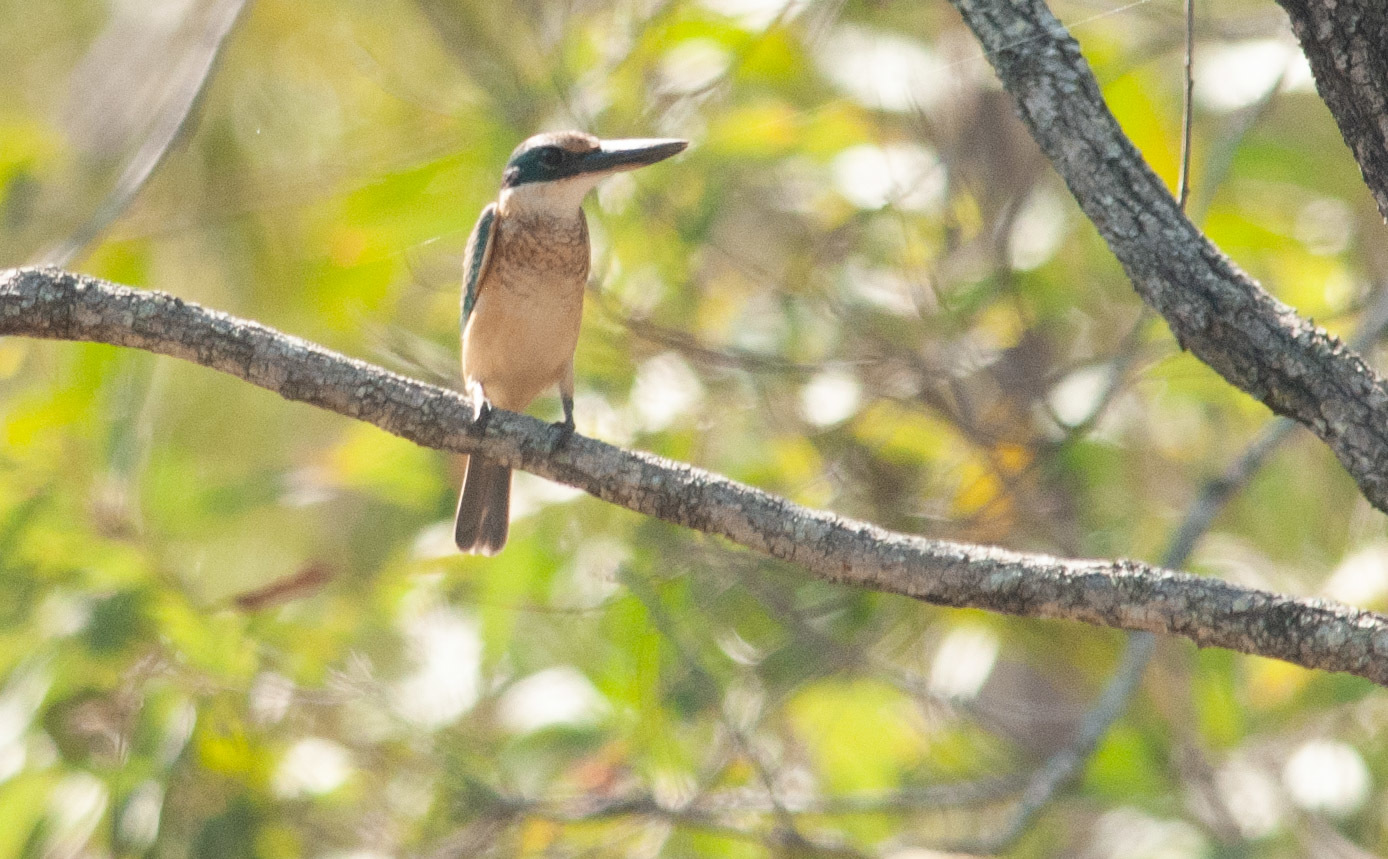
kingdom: Animalia
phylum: Chordata
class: Aves
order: Coraciiformes
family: Alcedinidae
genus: Todiramphus
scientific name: Todiramphus sanctus
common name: Sacred kingfisher
